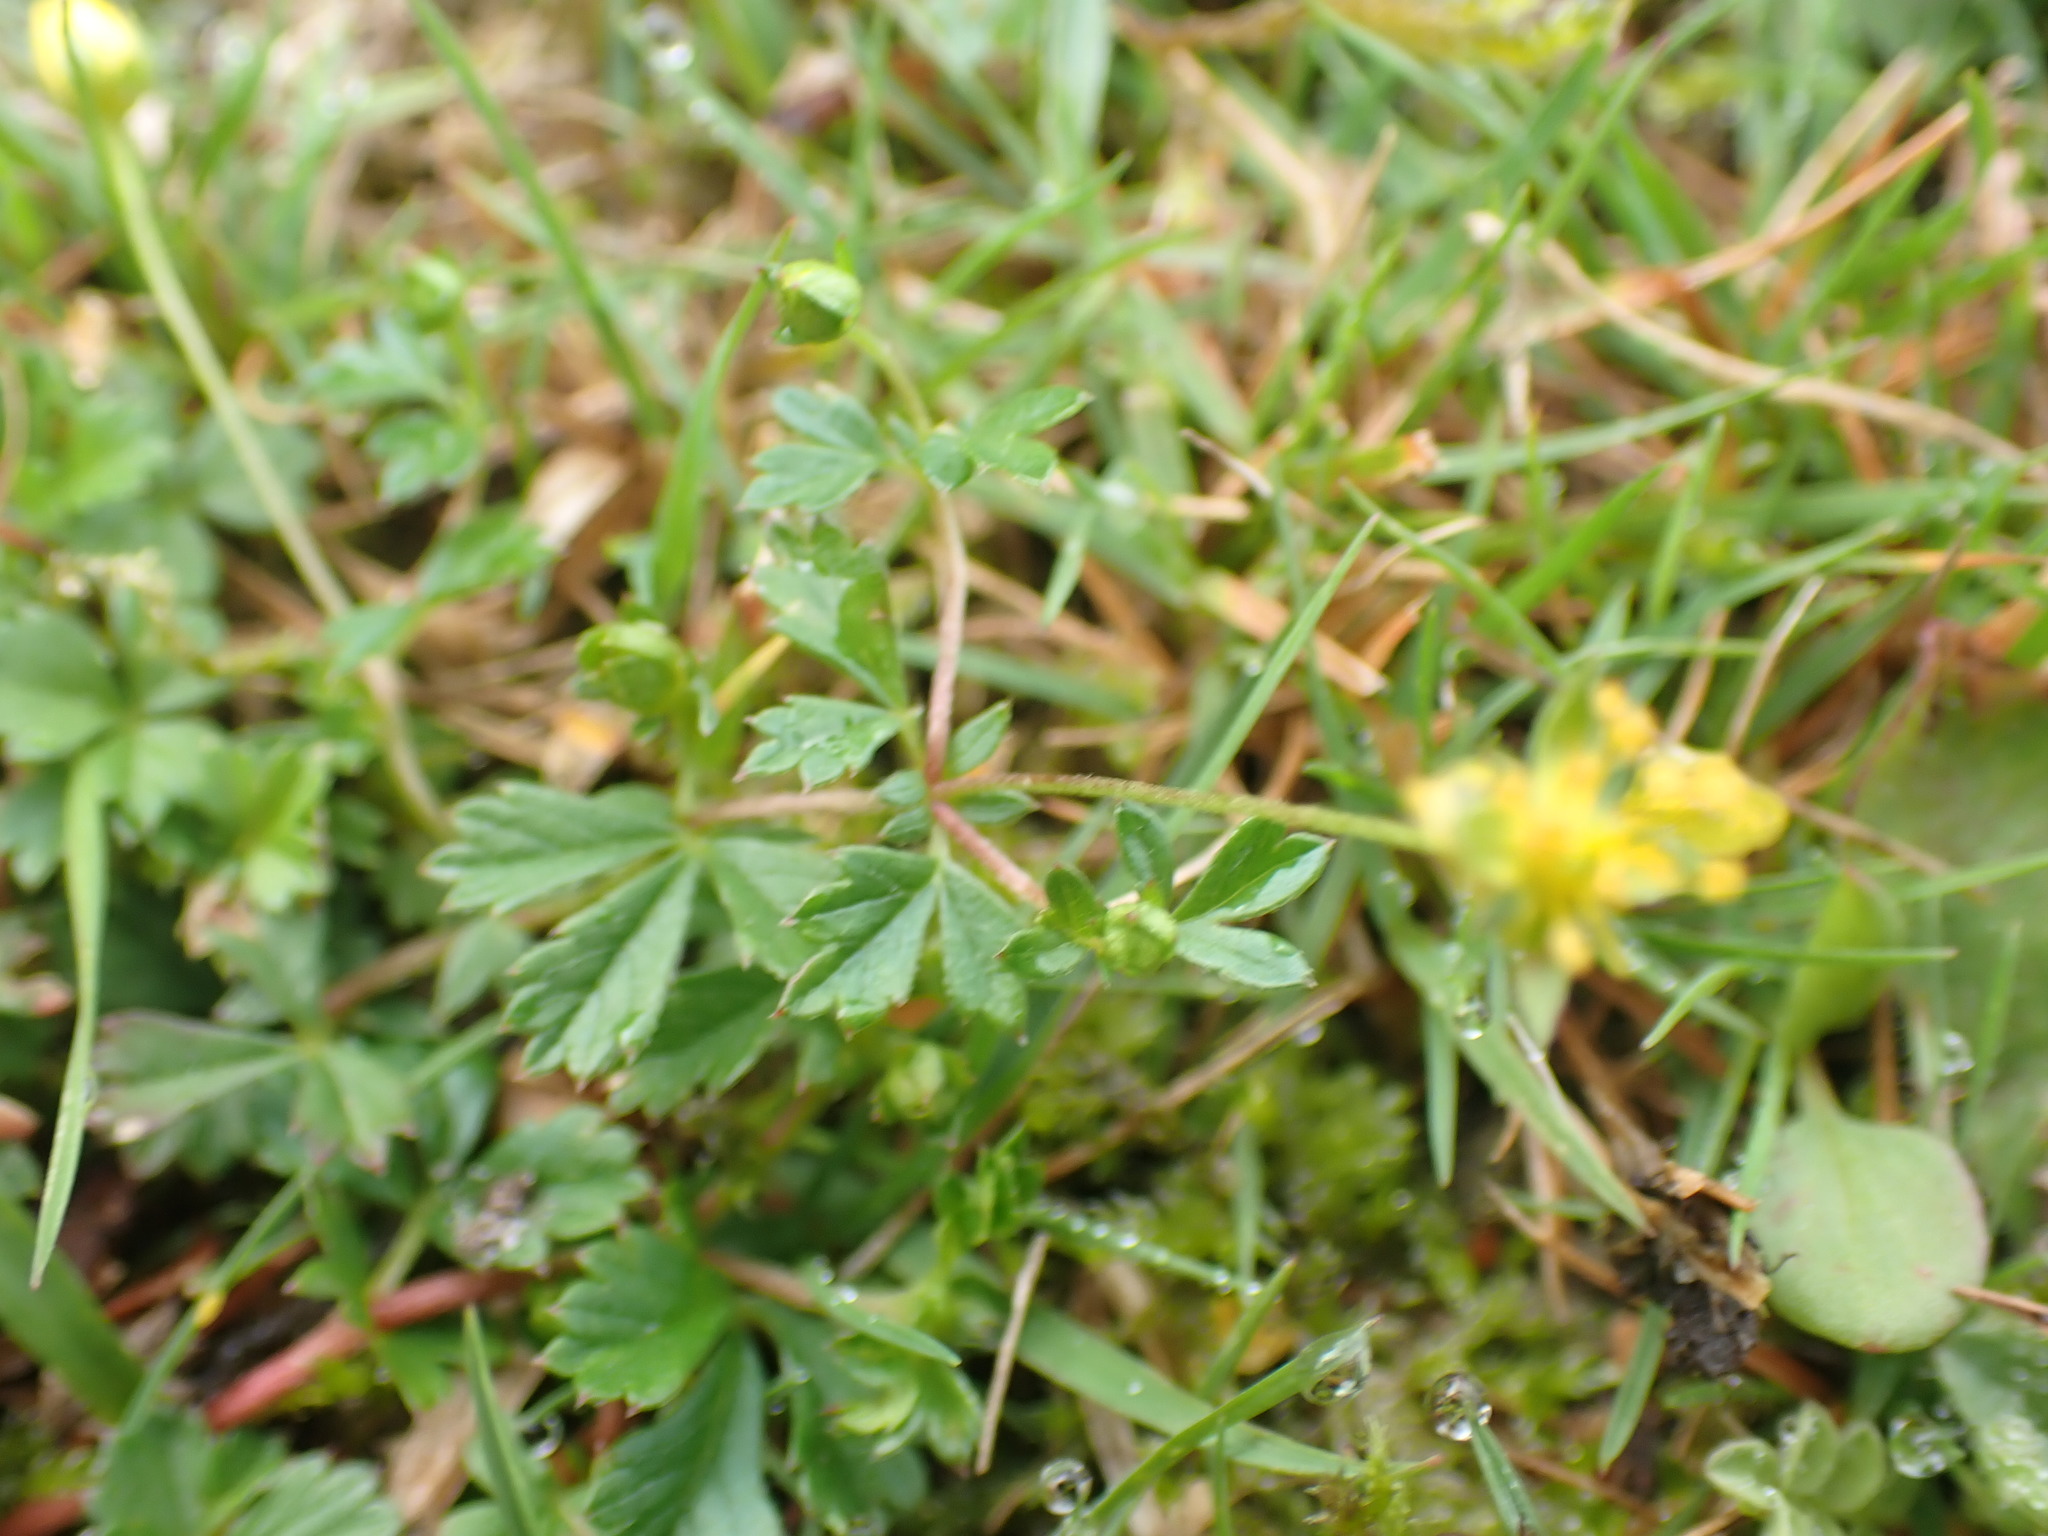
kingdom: Plantae
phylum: Tracheophyta
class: Magnoliopsida
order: Rosales
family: Rosaceae
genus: Potentilla
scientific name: Potentilla erecta
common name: Tormentil
